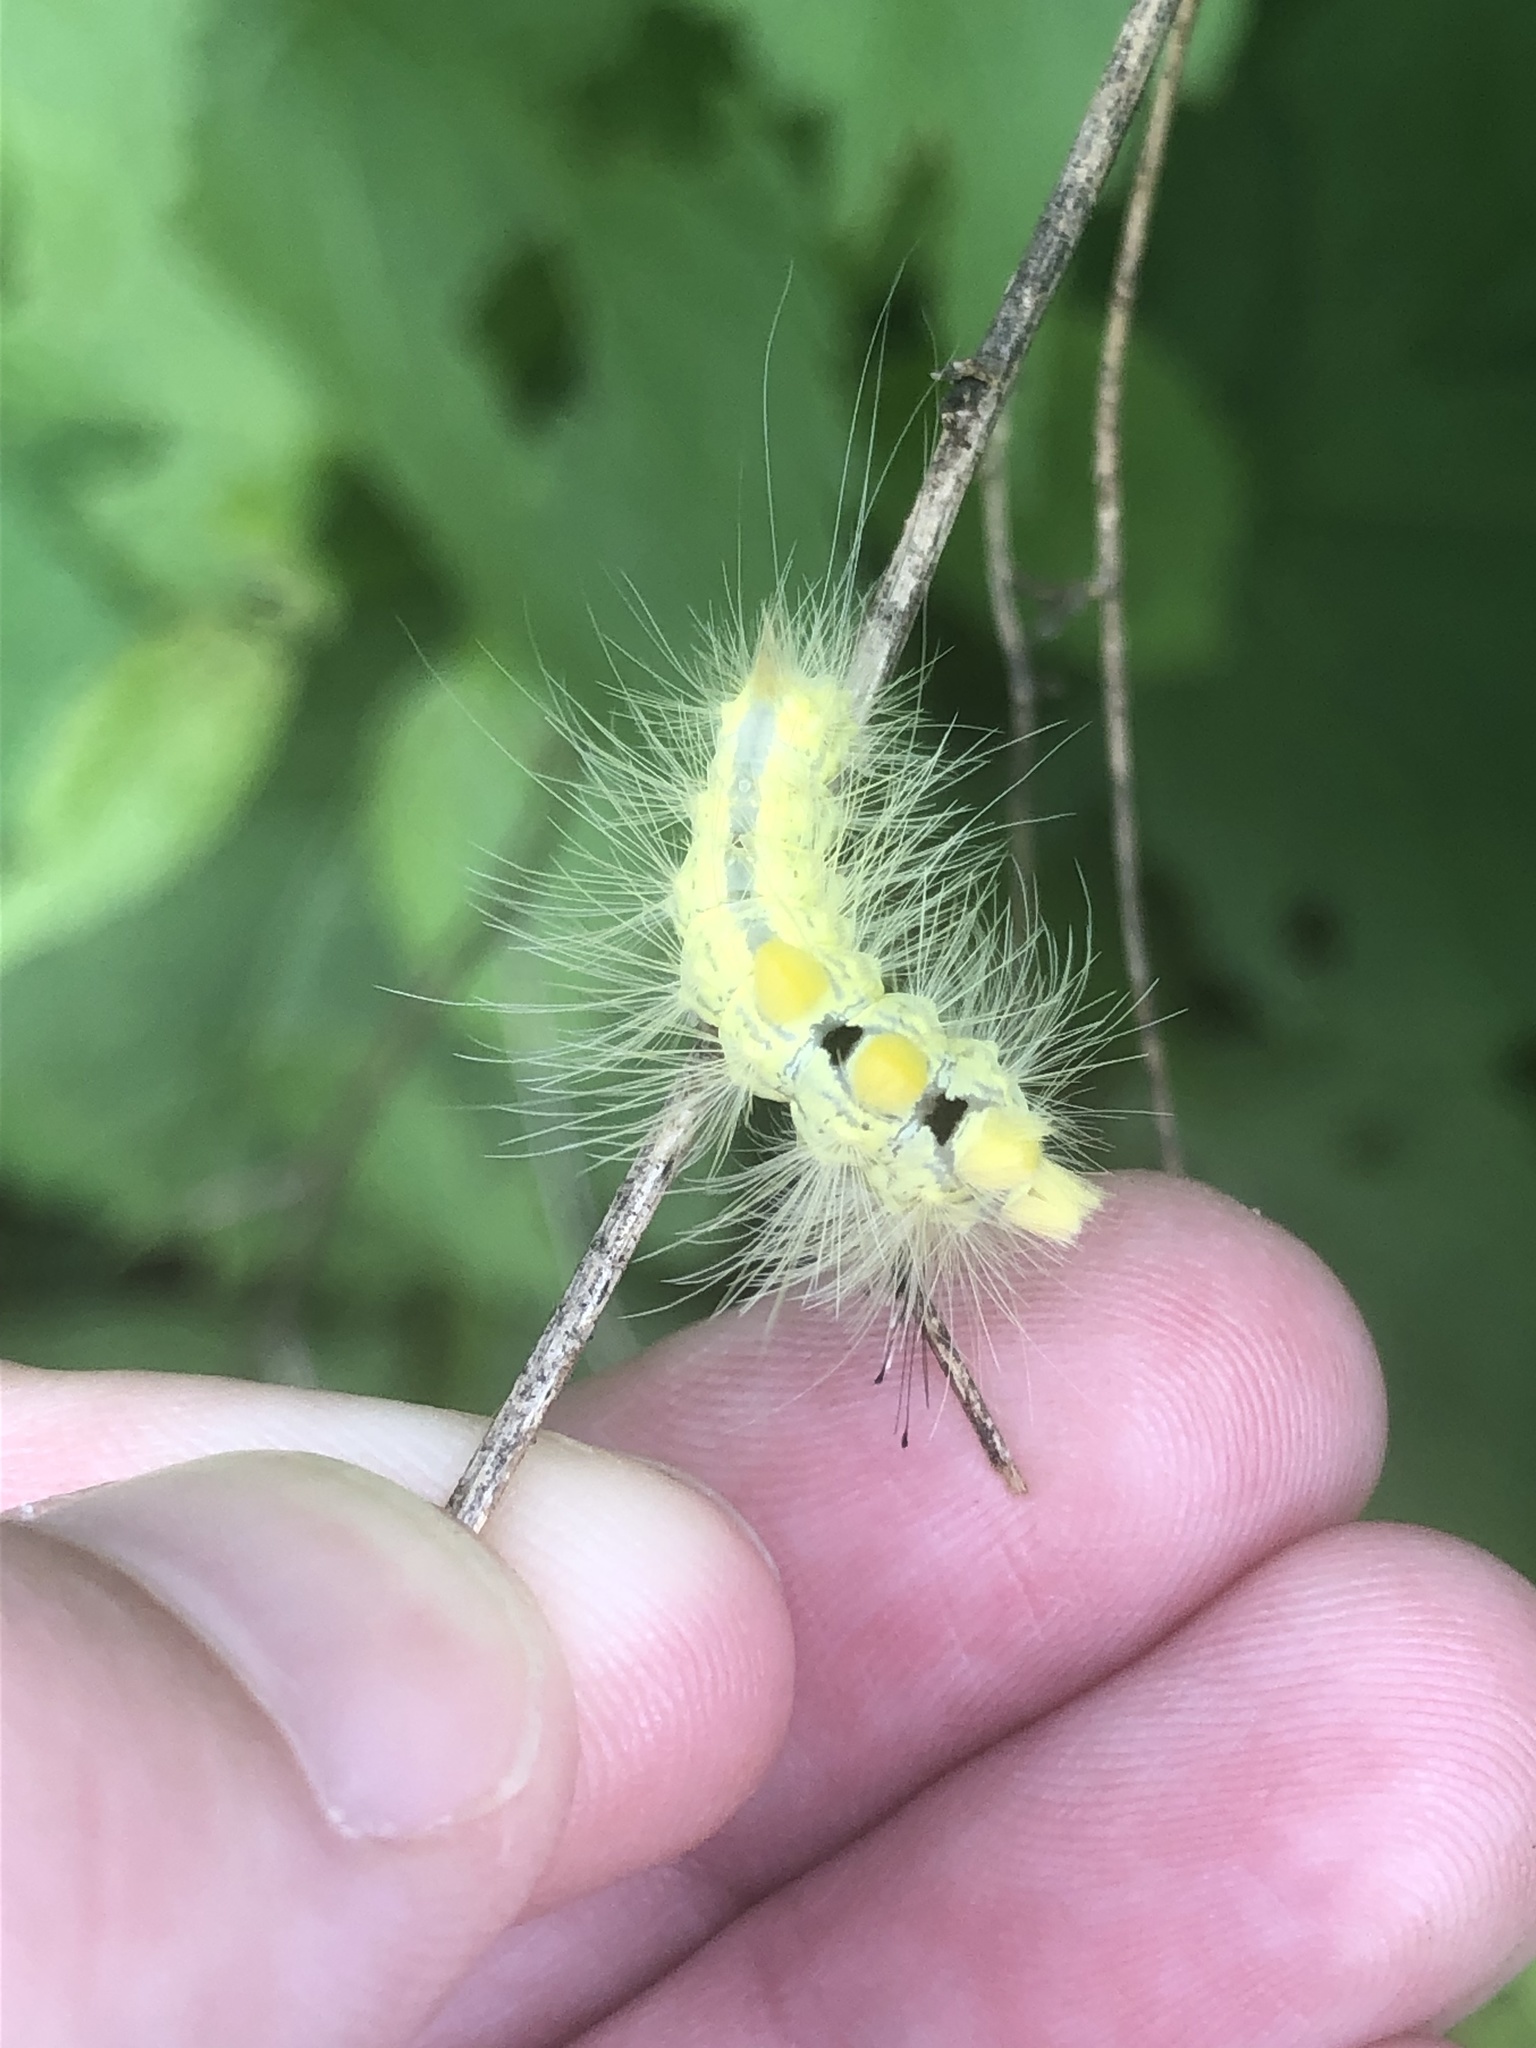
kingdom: Animalia
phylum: Arthropoda
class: Insecta
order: Lepidoptera
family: Erebidae
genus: Orgyia
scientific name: Orgyia definita
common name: Definite tussock moth
